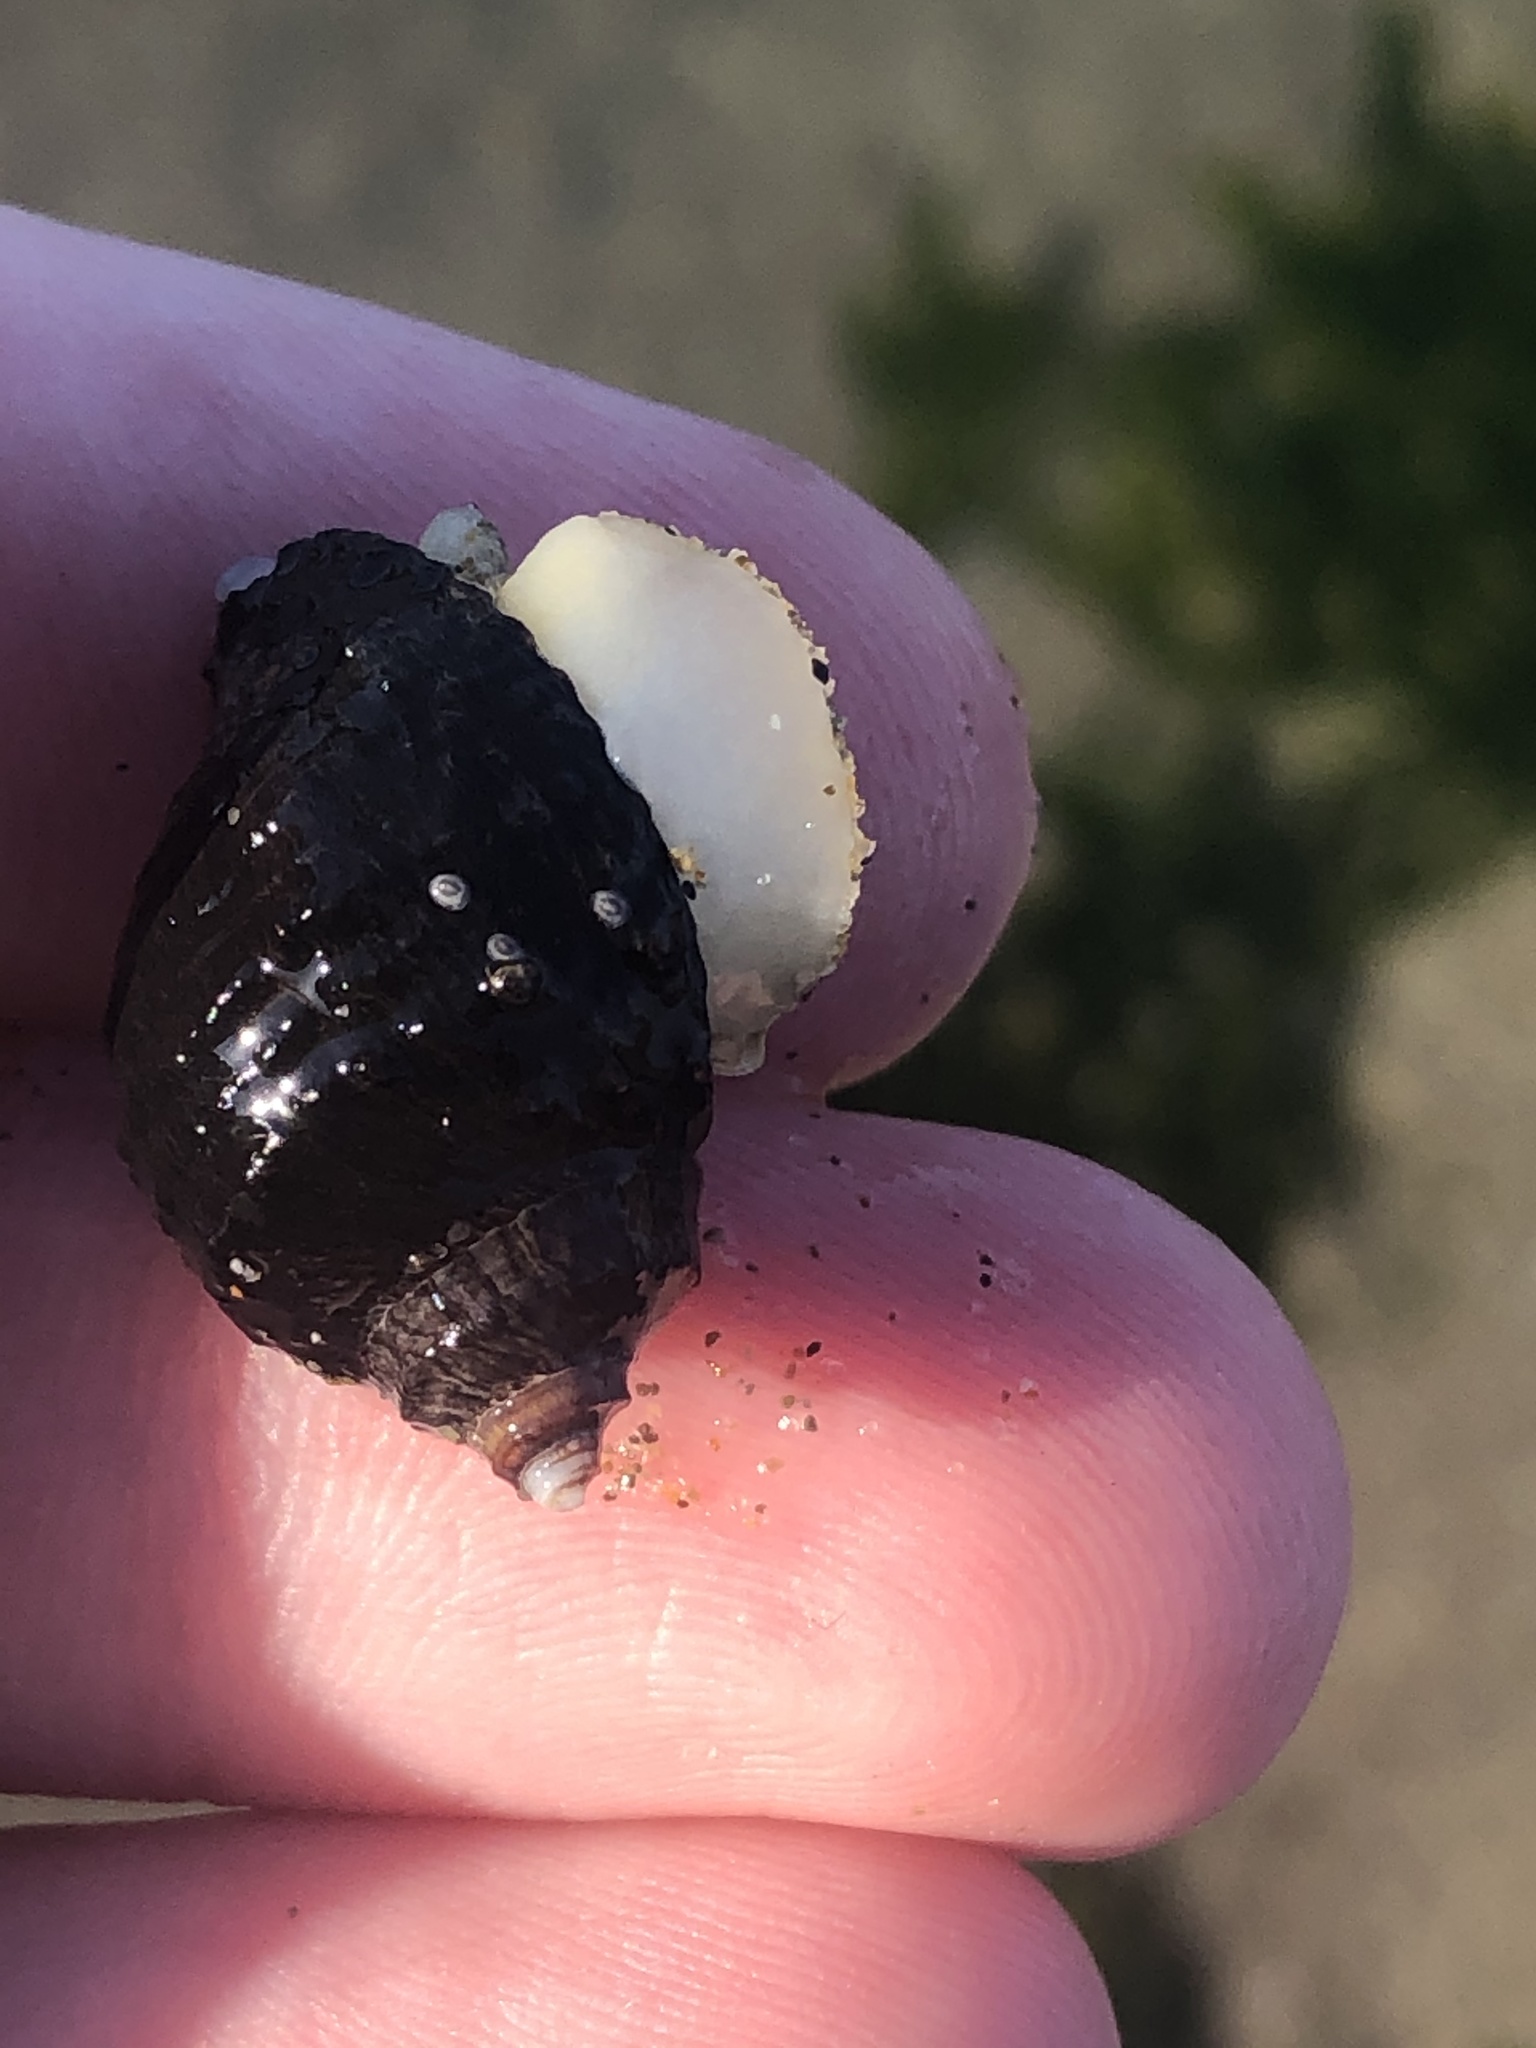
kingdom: Animalia
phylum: Mollusca
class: Gastropoda
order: Neogastropoda
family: Muricidae
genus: Nucella
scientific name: Nucella ostrina
